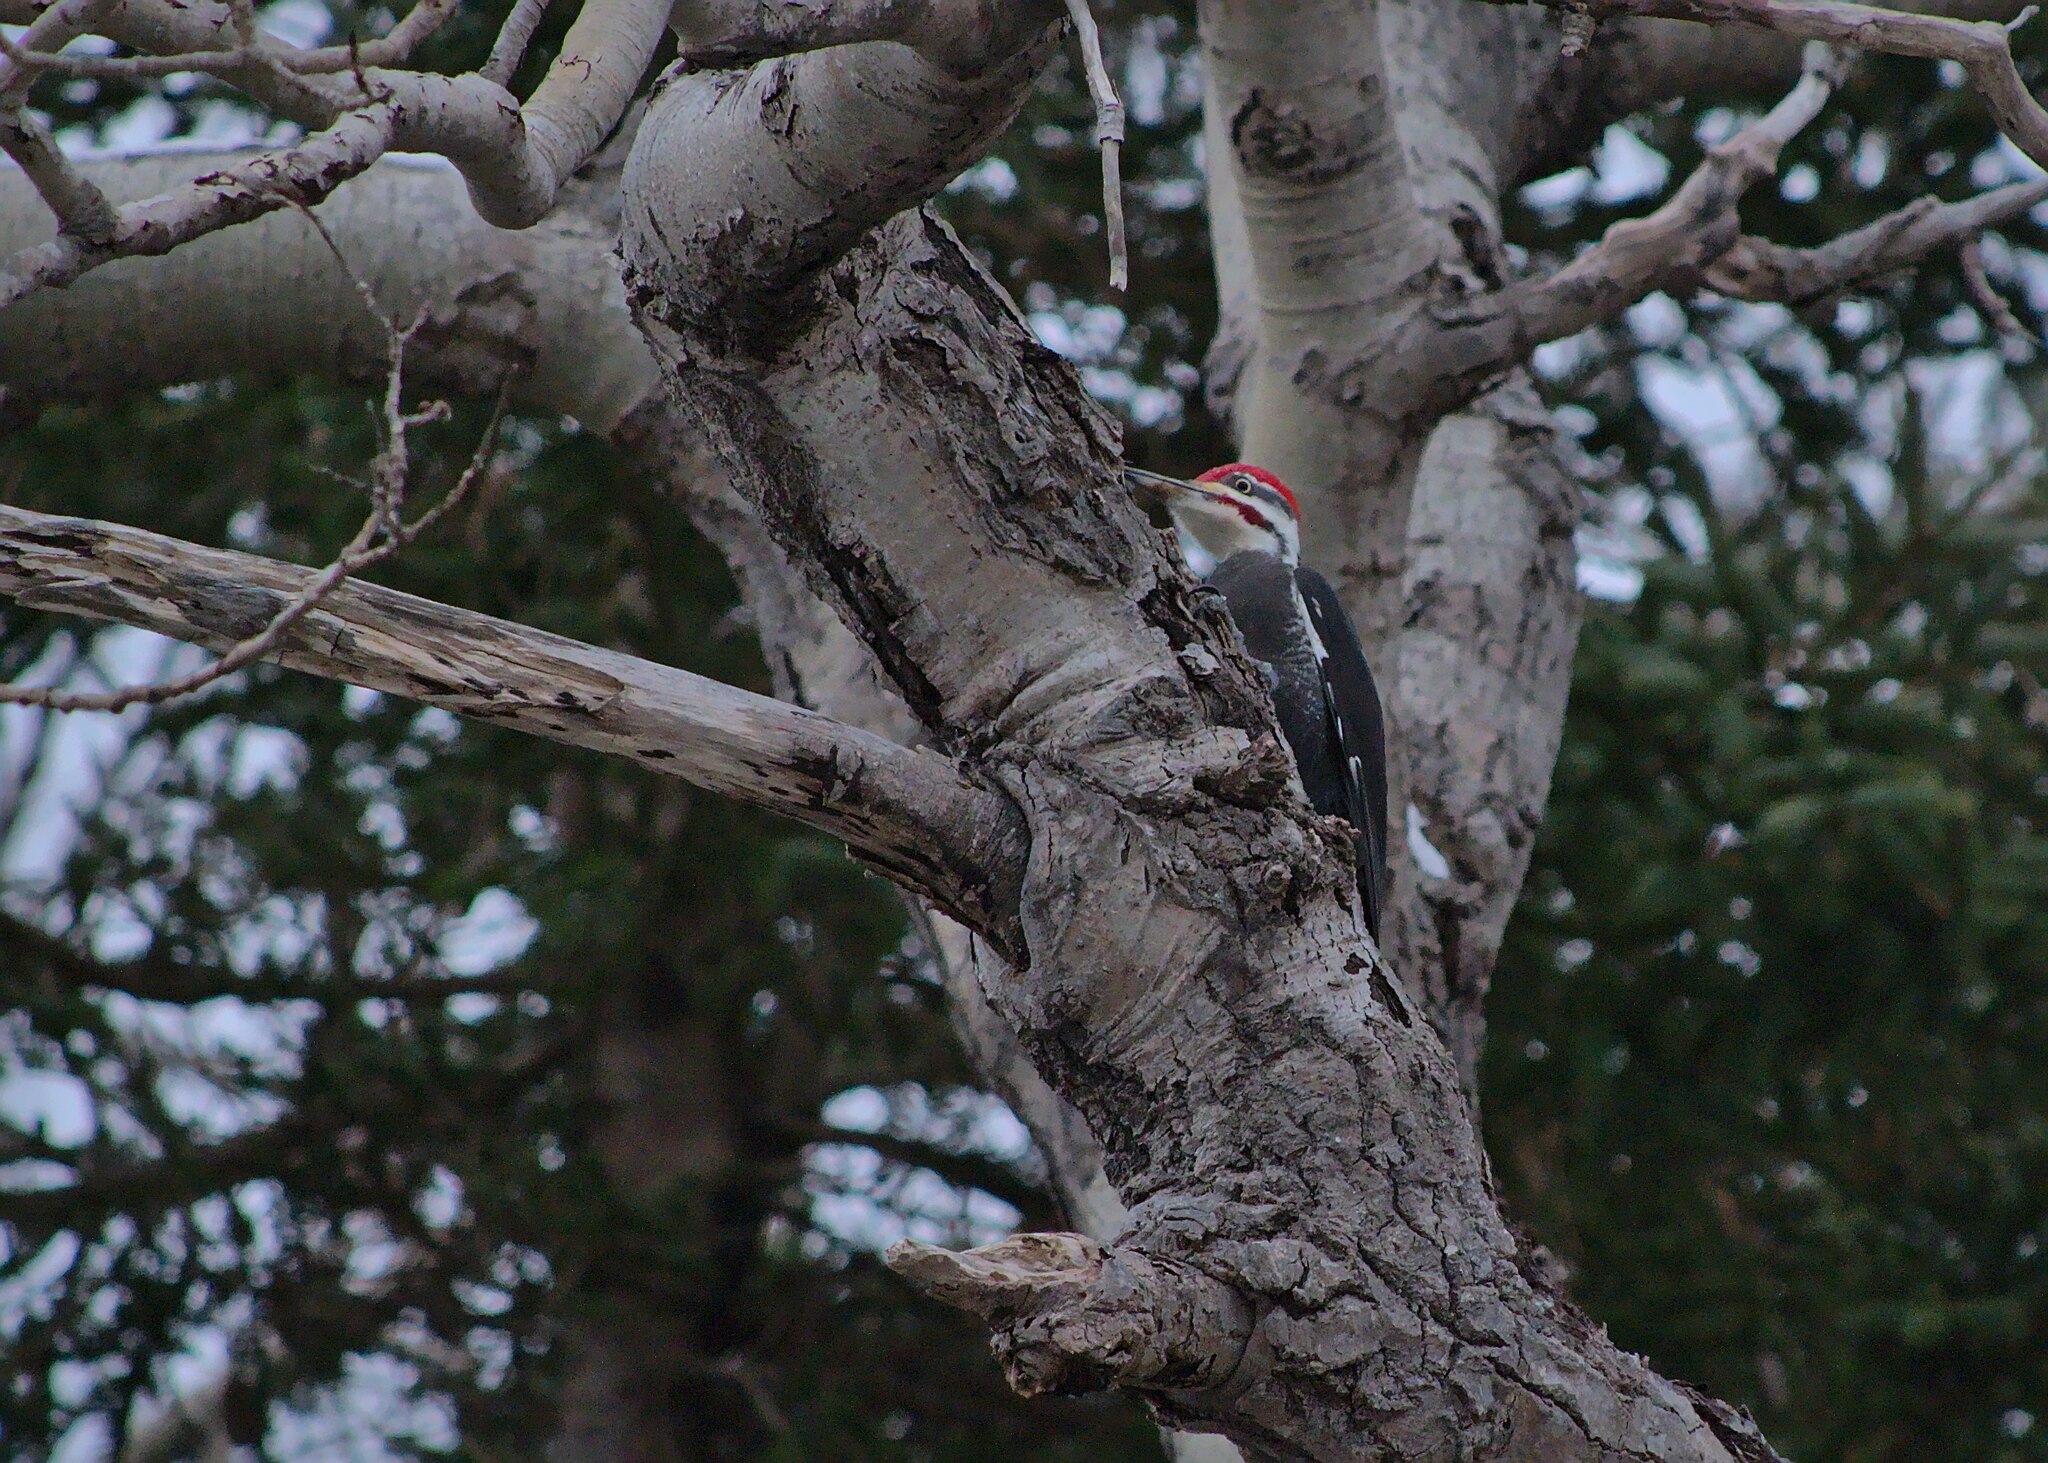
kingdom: Animalia
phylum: Chordata
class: Aves
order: Piciformes
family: Picidae
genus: Dryocopus
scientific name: Dryocopus pileatus
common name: Pileated woodpecker
